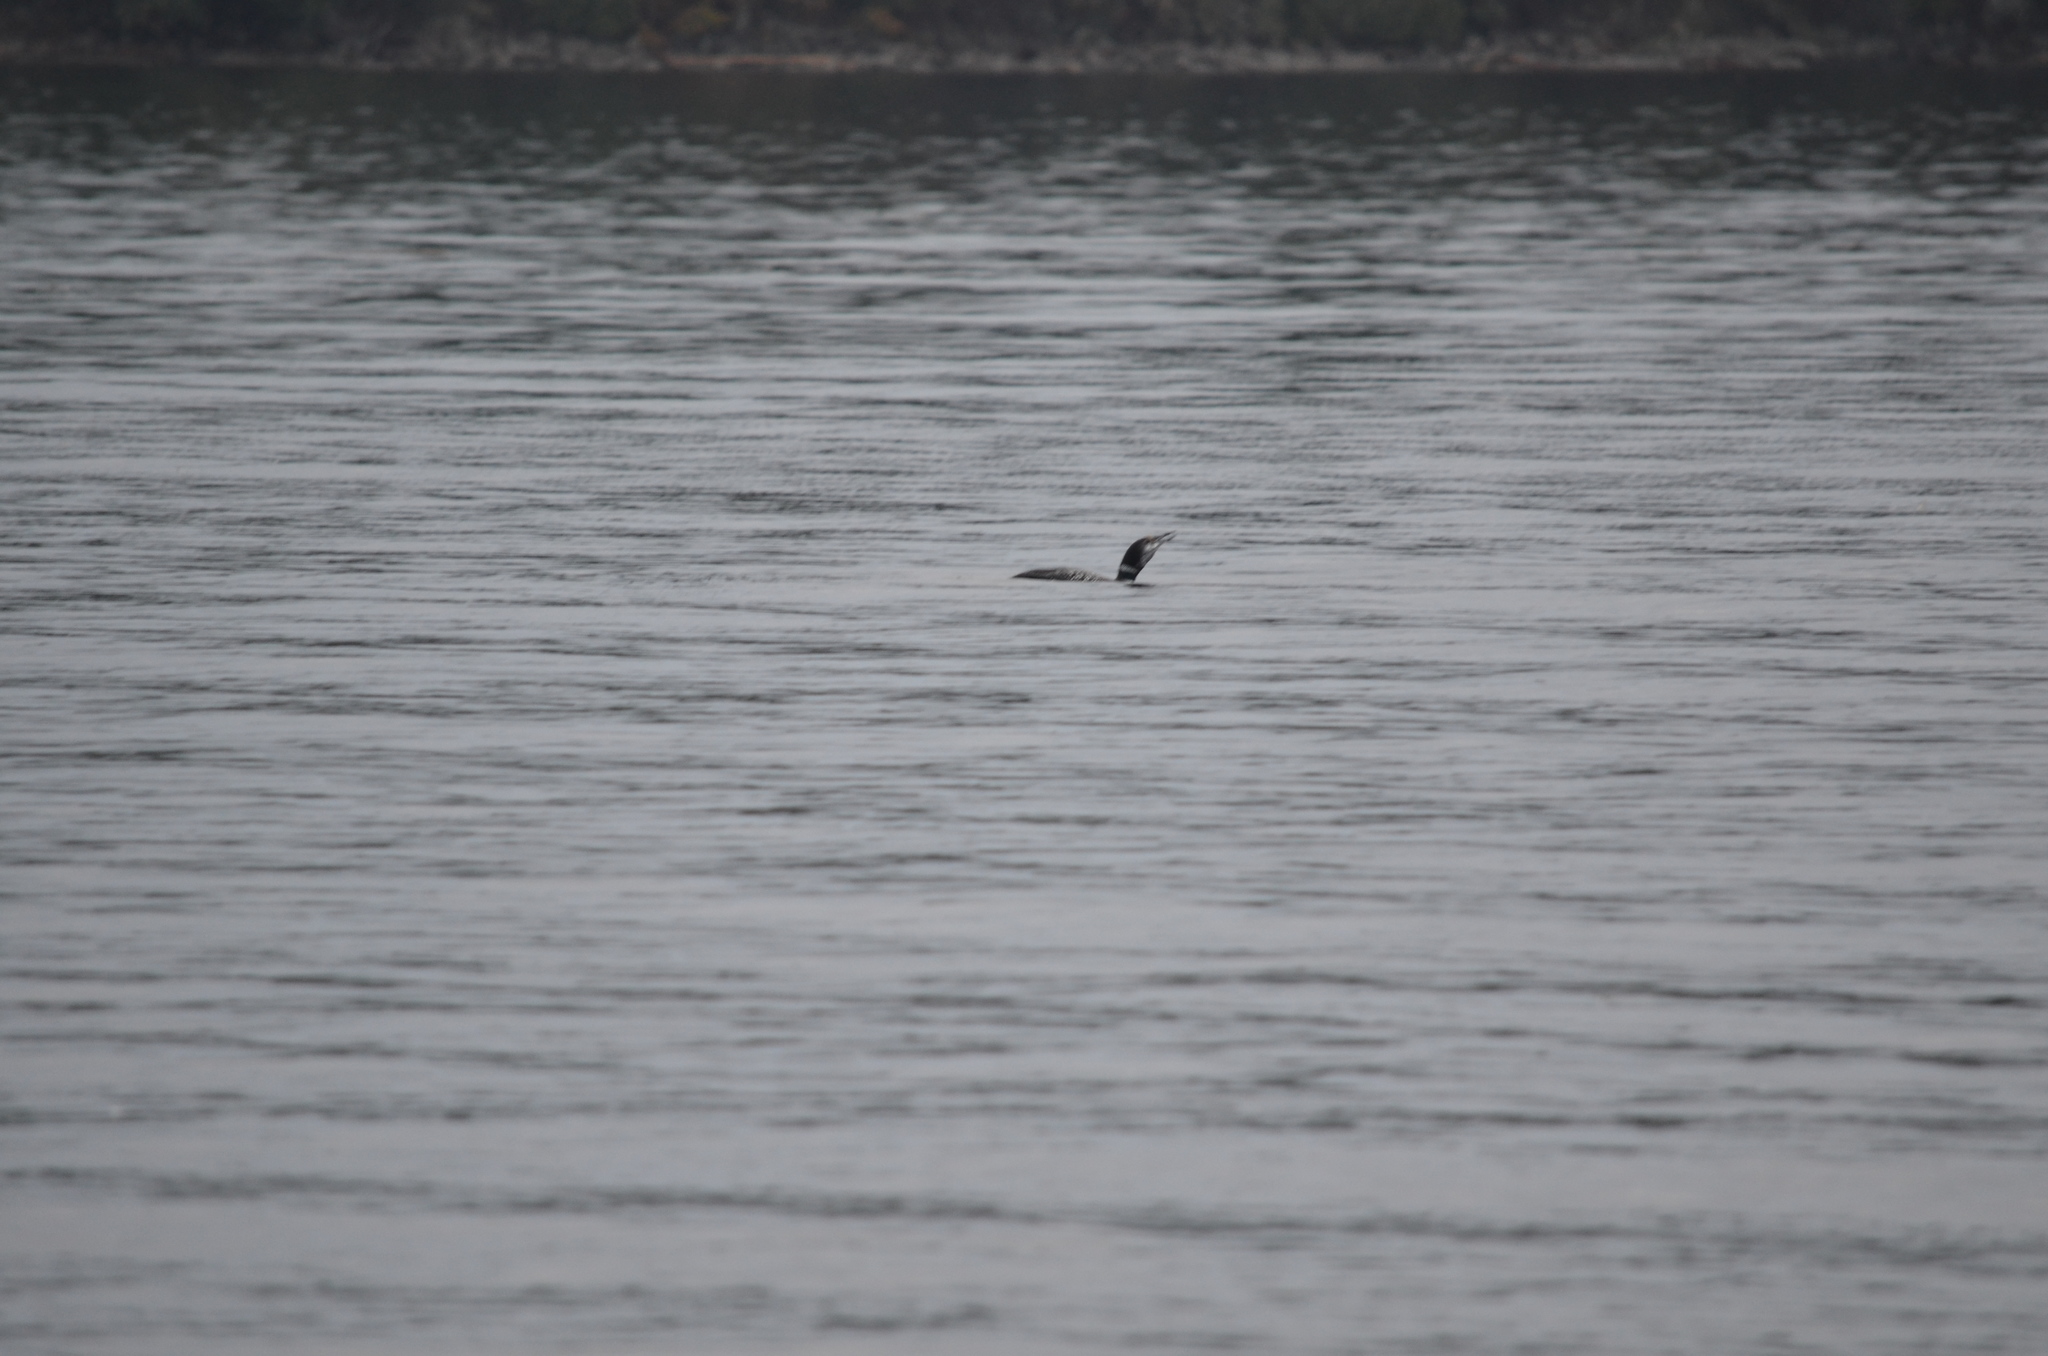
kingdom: Animalia
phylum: Chordata
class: Aves
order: Gaviiformes
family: Gaviidae
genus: Gavia
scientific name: Gavia immer
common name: Common loon
